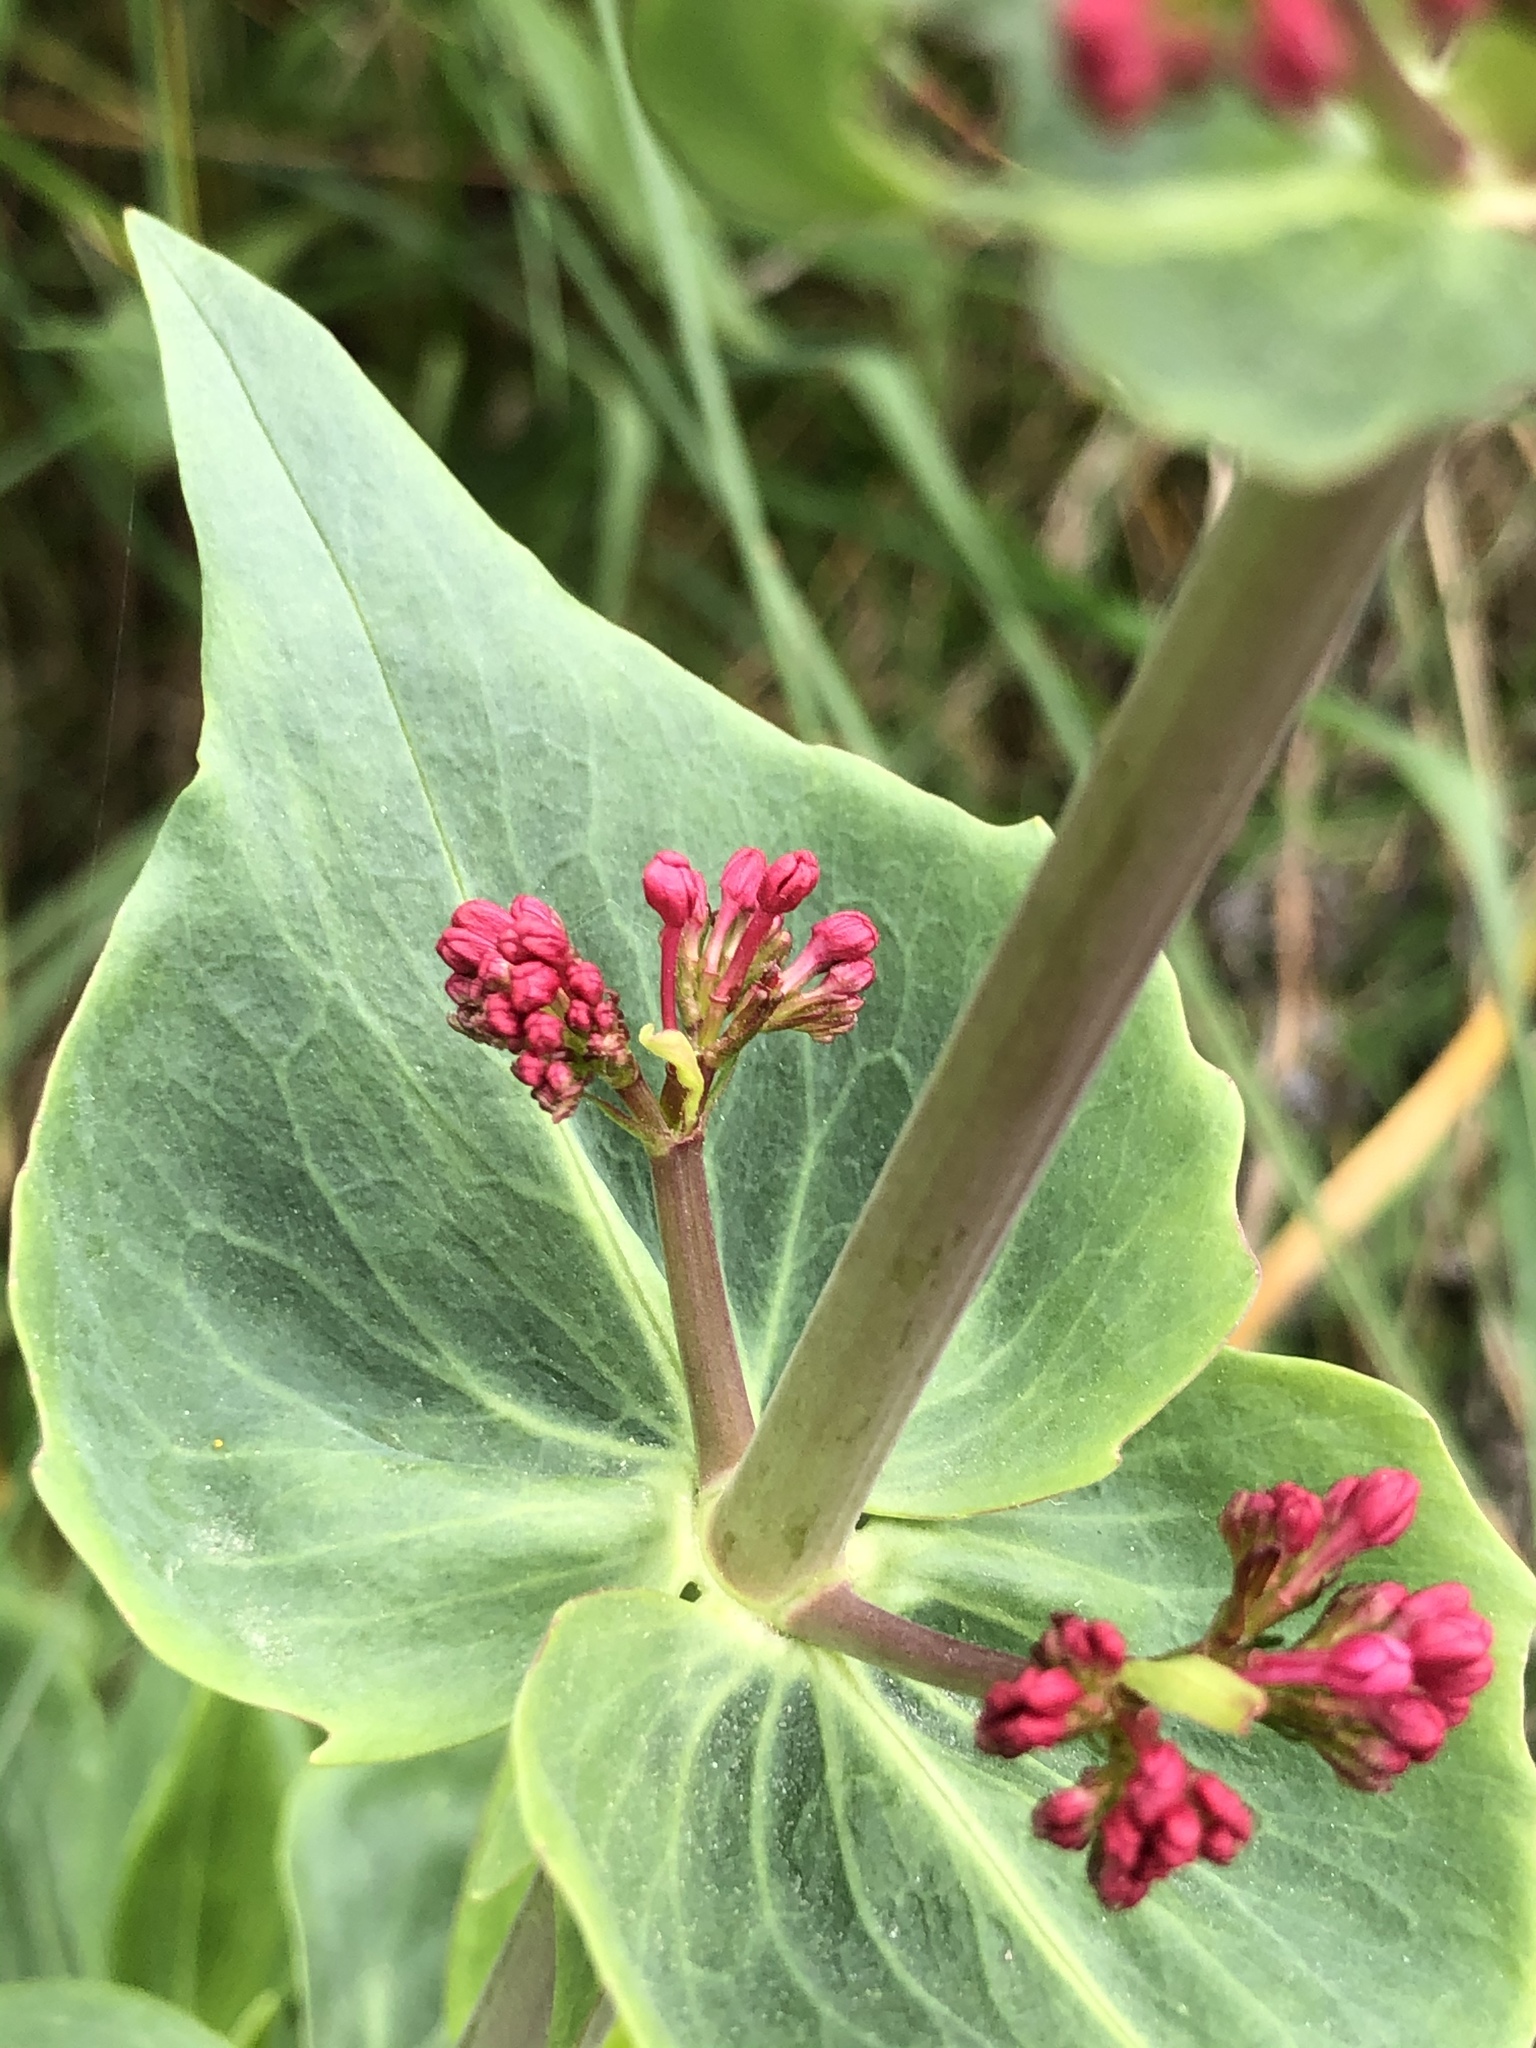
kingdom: Plantae
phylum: Tracheophyta
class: Magnoliopsida
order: Dipsacales
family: Caprifoliaceae
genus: Centranthus
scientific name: Centranthus ruber
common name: Red valerian
